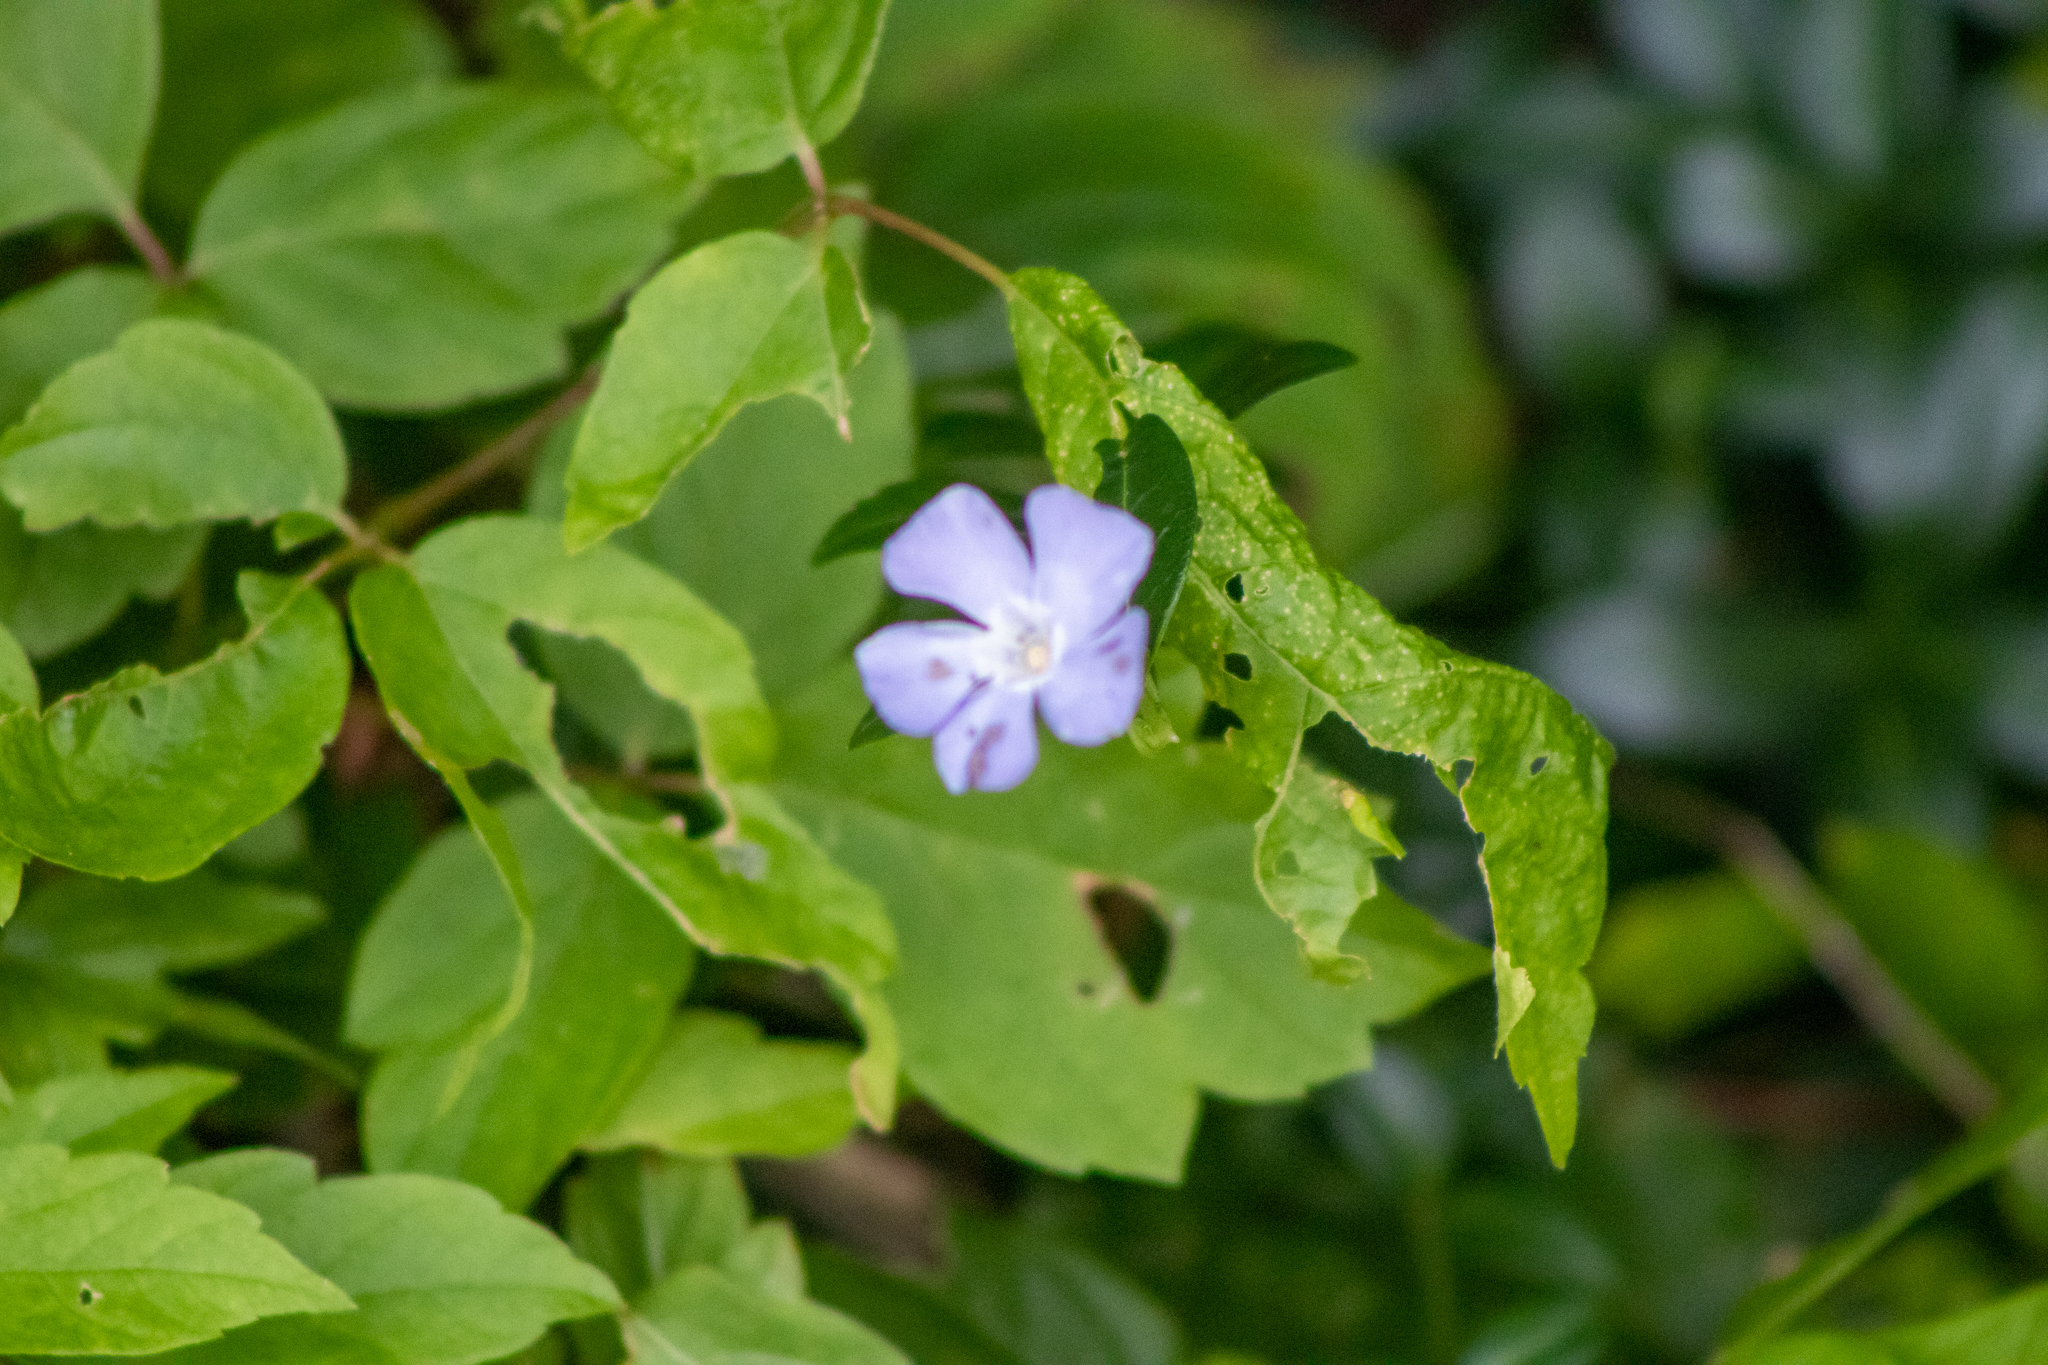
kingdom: Plantae
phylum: Tracheophyta
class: Magnoliopsida
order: Gentianales
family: Apocynaceae
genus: Vinca
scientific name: Vinca minor
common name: Lesser periwinkle
